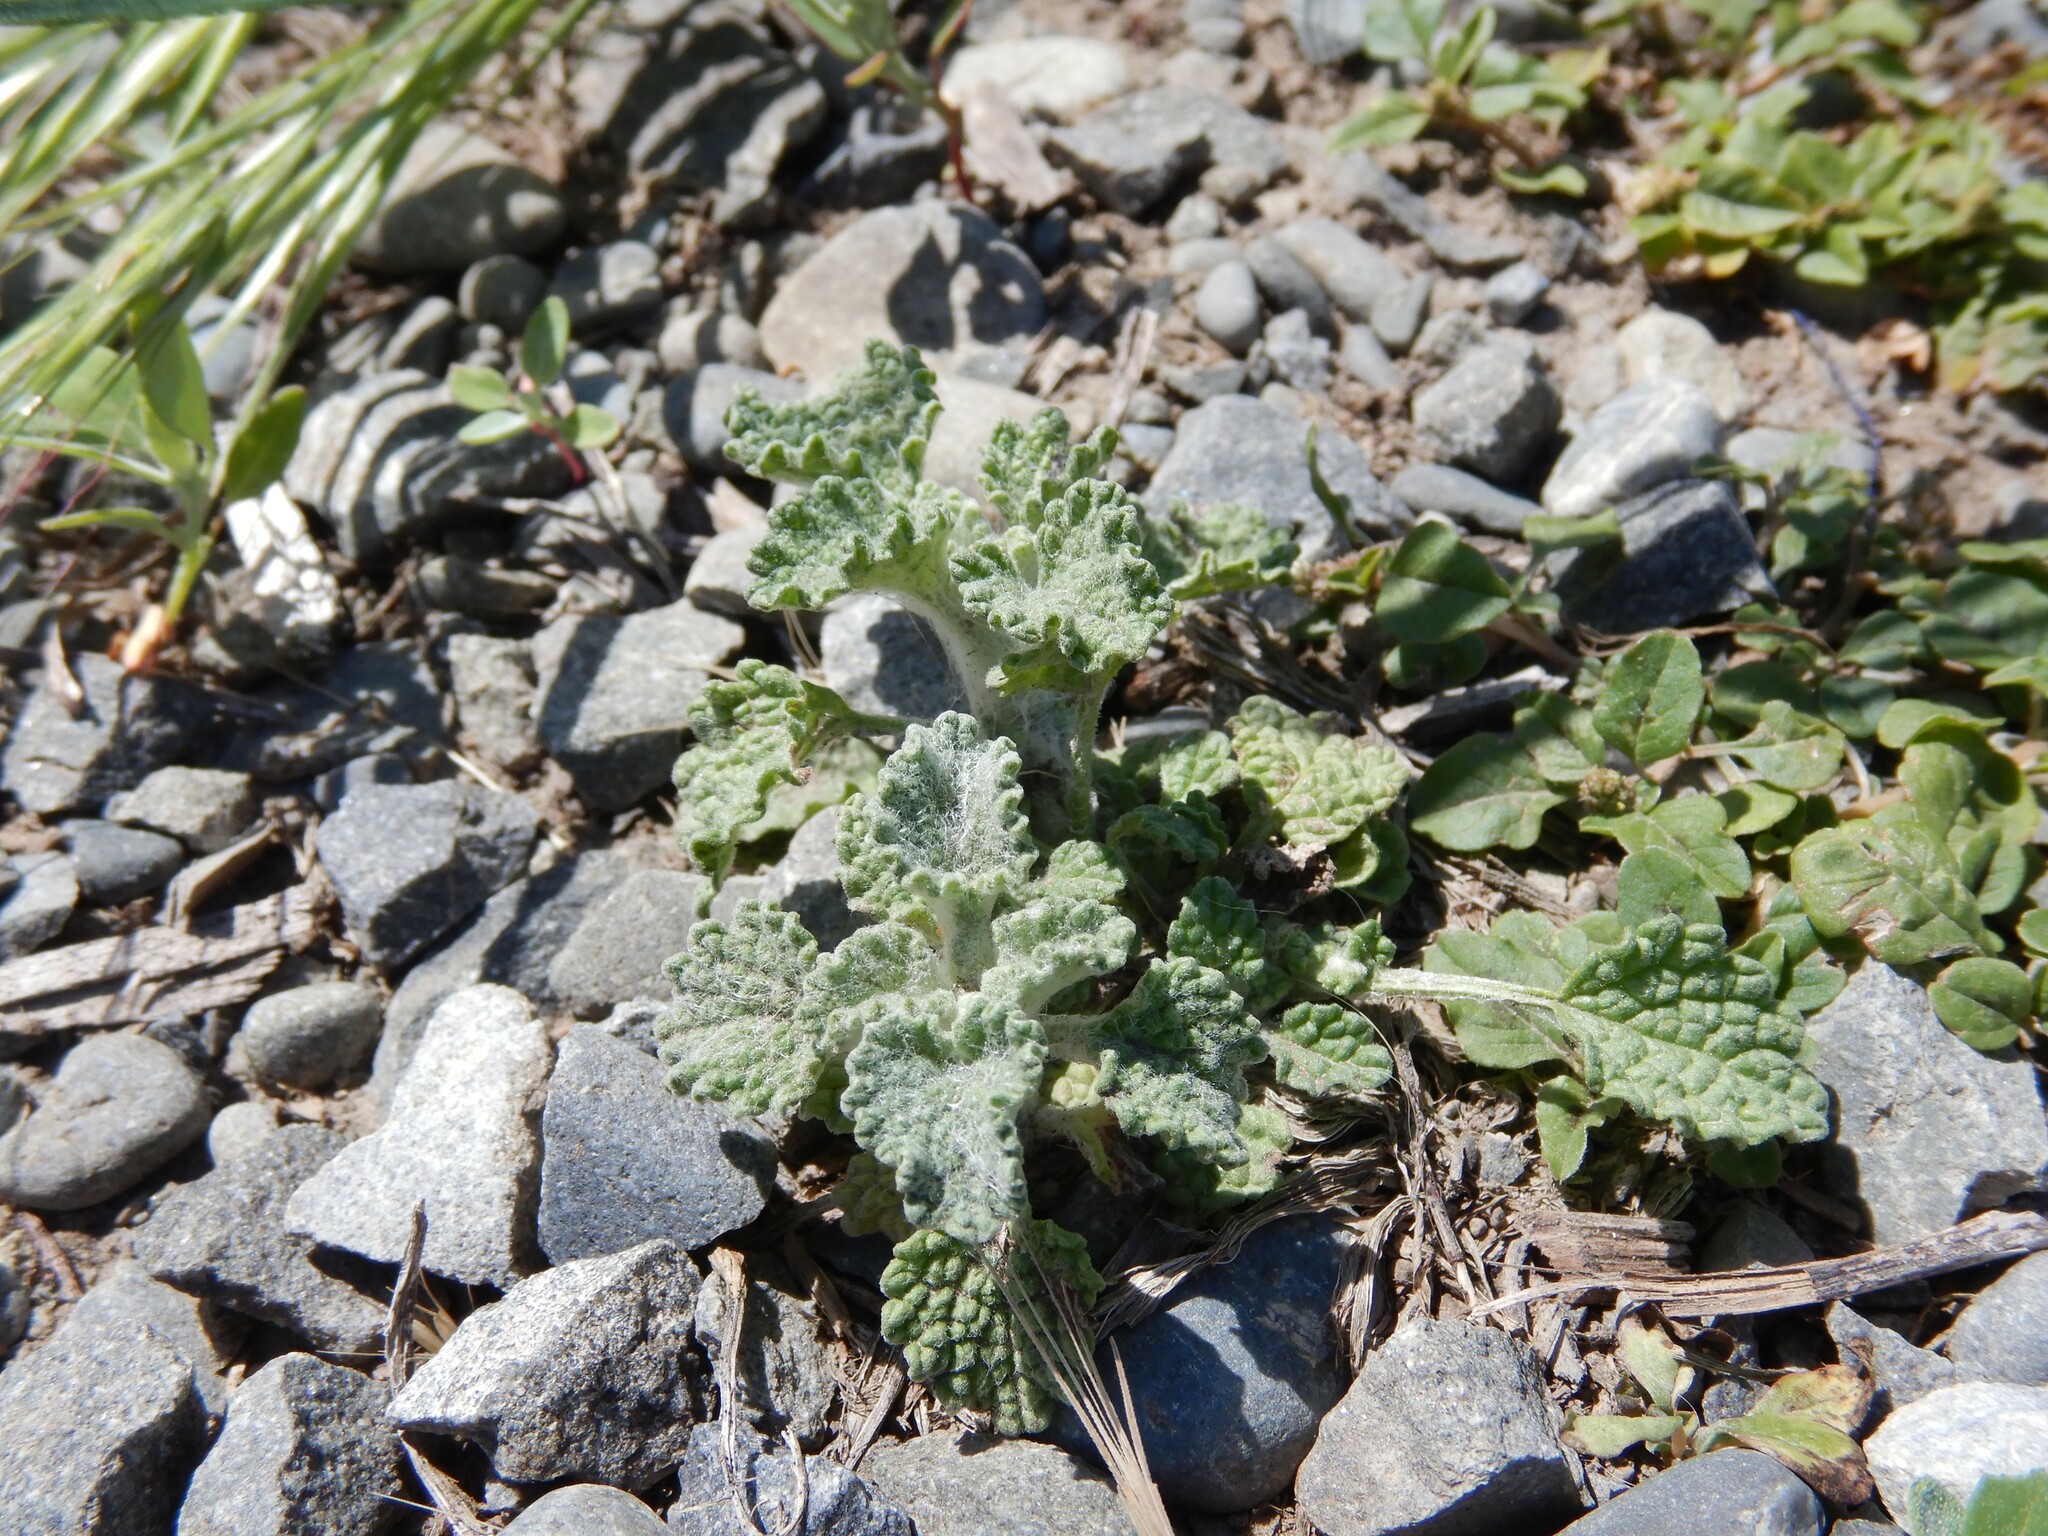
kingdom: Plantae
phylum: Tracheophyta
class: Magnoliopsida
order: Lamiales
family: Lamiaceae
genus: Marrubium
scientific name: Marrubium vulgare
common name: Horehound
